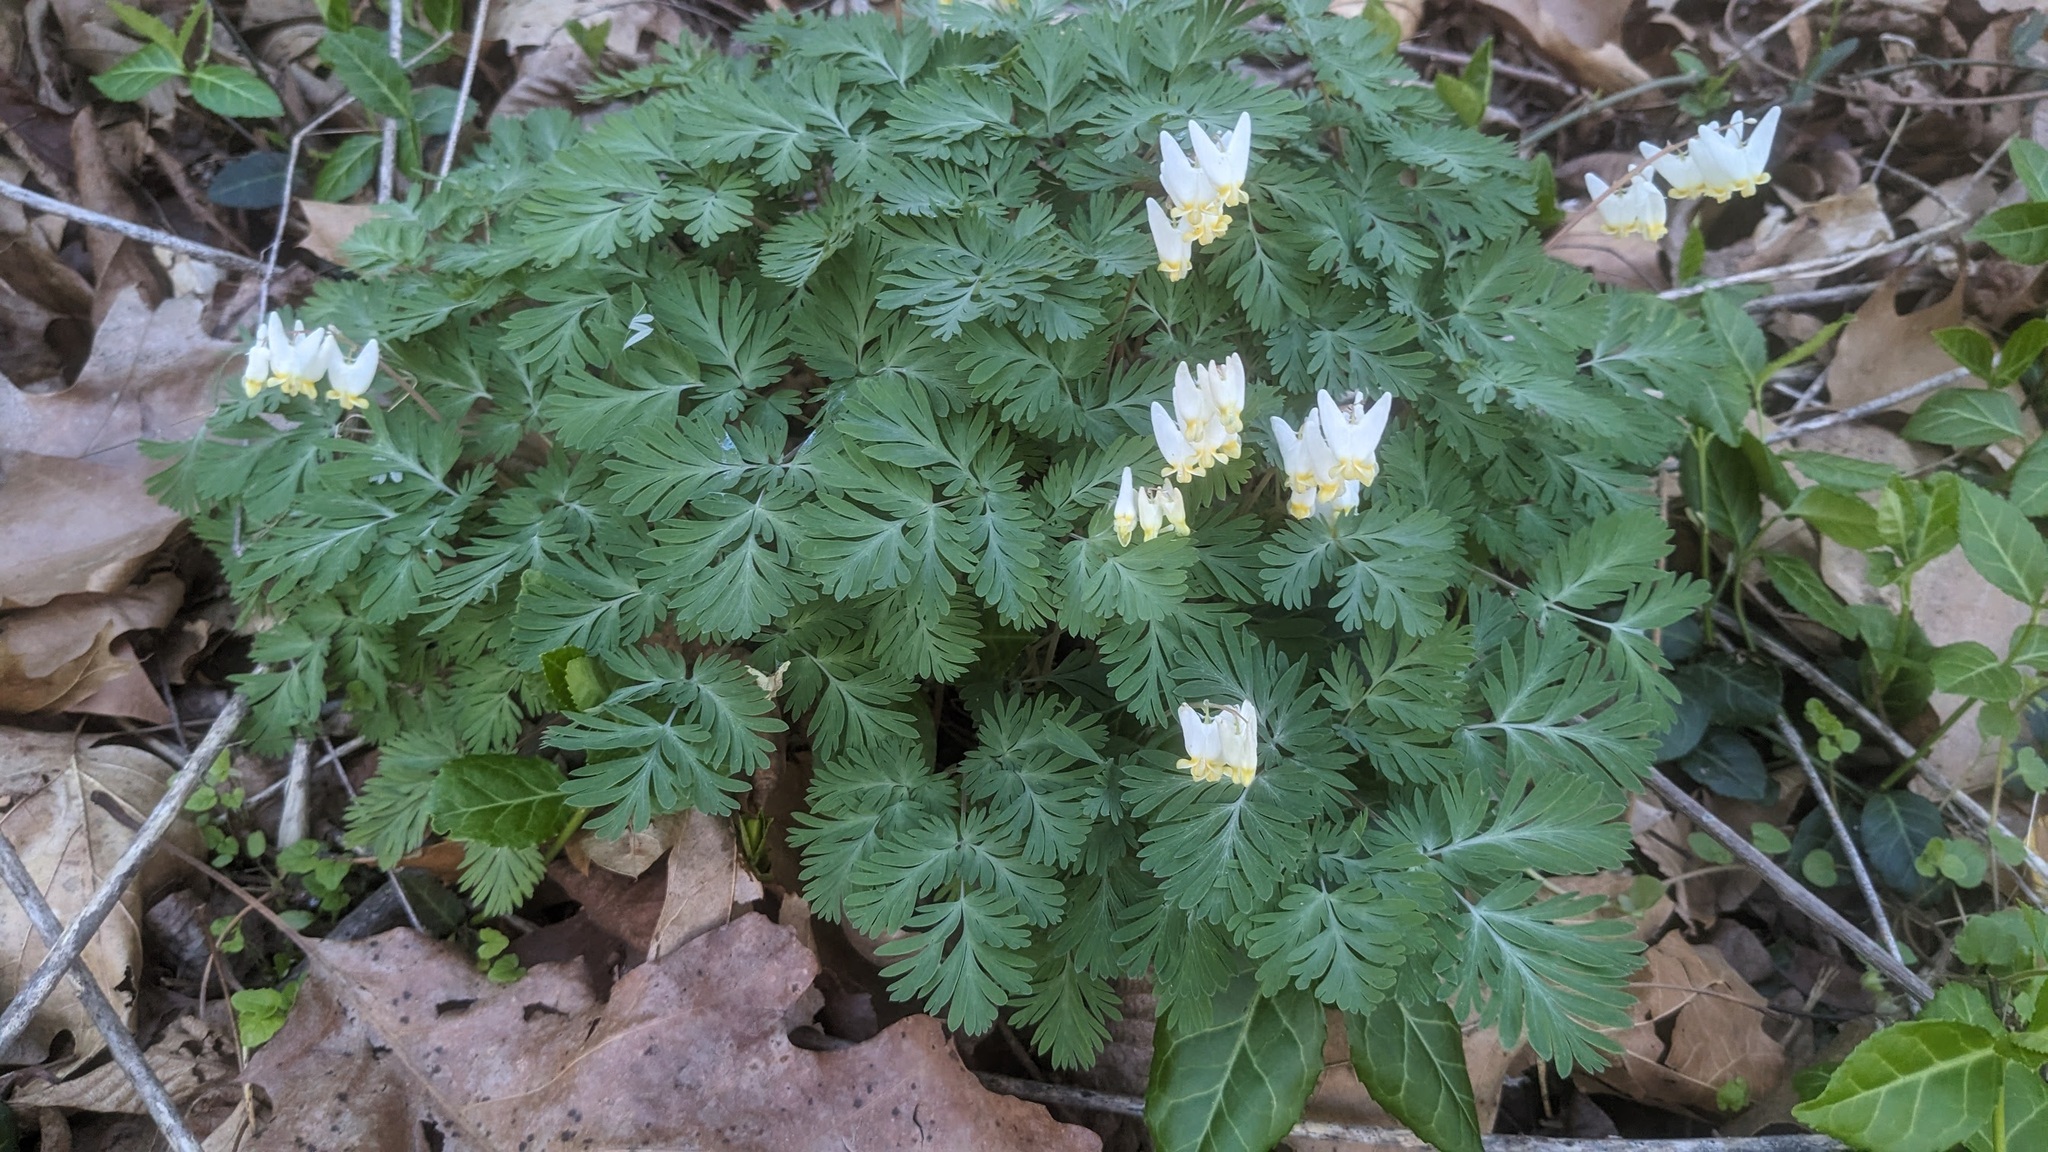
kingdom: Plantae
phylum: Tracheophyta
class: Magnoliopsida
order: Ranunculales
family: Papaveraceae
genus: Dicentra
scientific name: Dicentra cucullaria
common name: Dutchman's breeches
